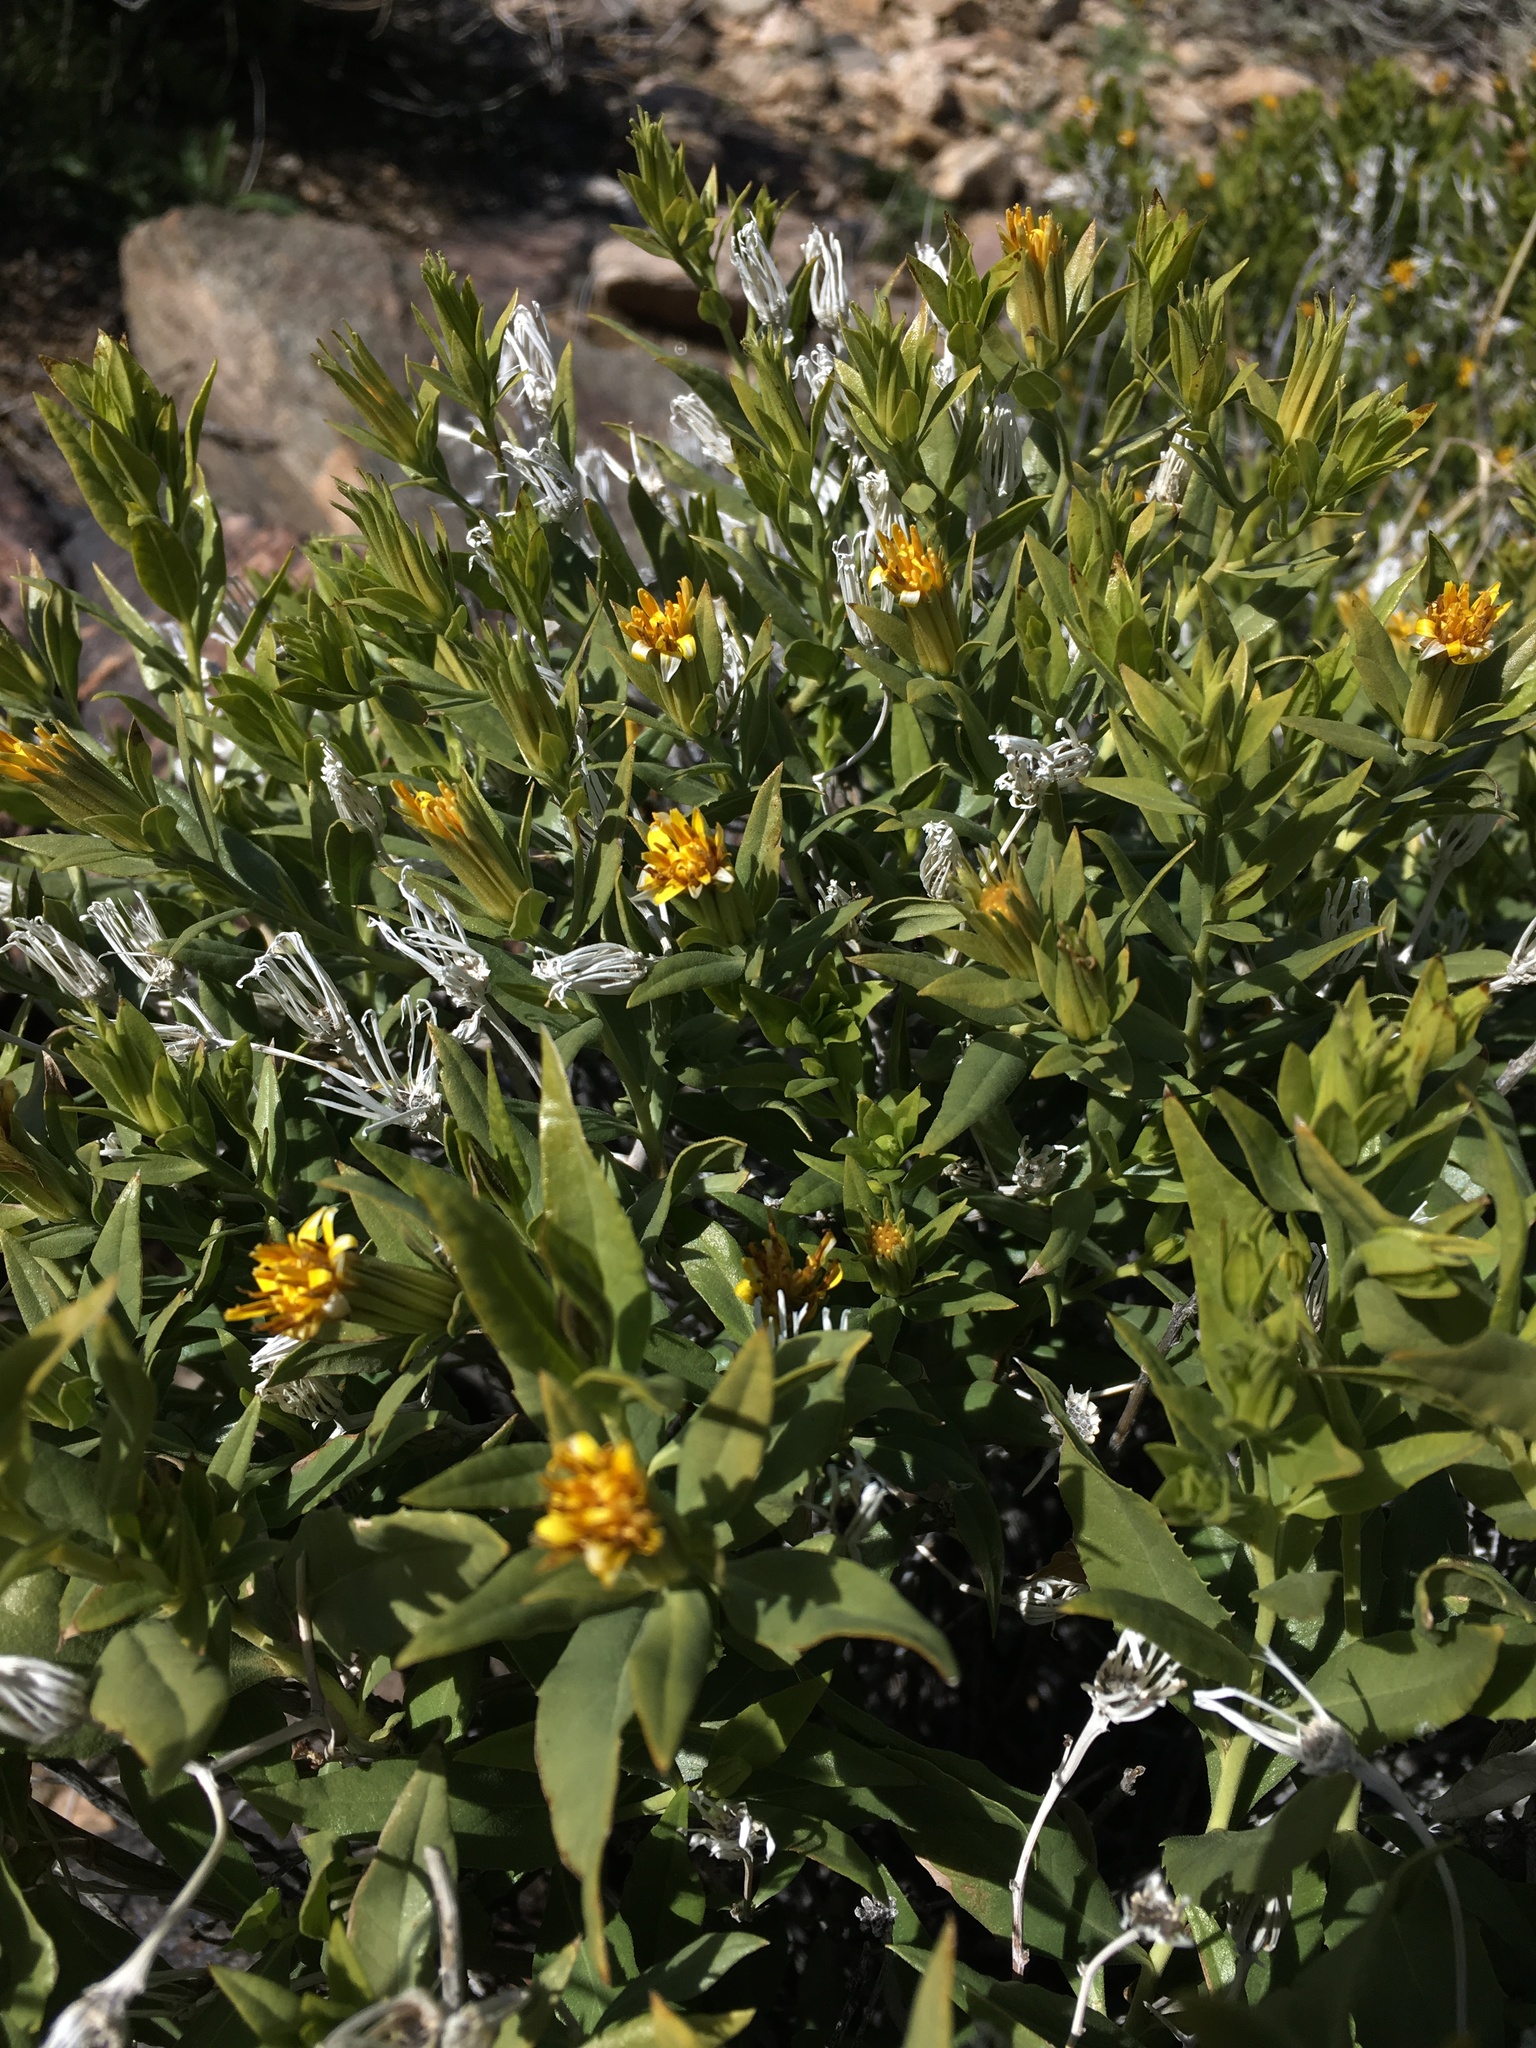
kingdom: Plantae
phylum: Tracheophyta
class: Magnoliopsida
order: Asterales
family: Asteraceae
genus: Trixis
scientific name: Trixis californica
